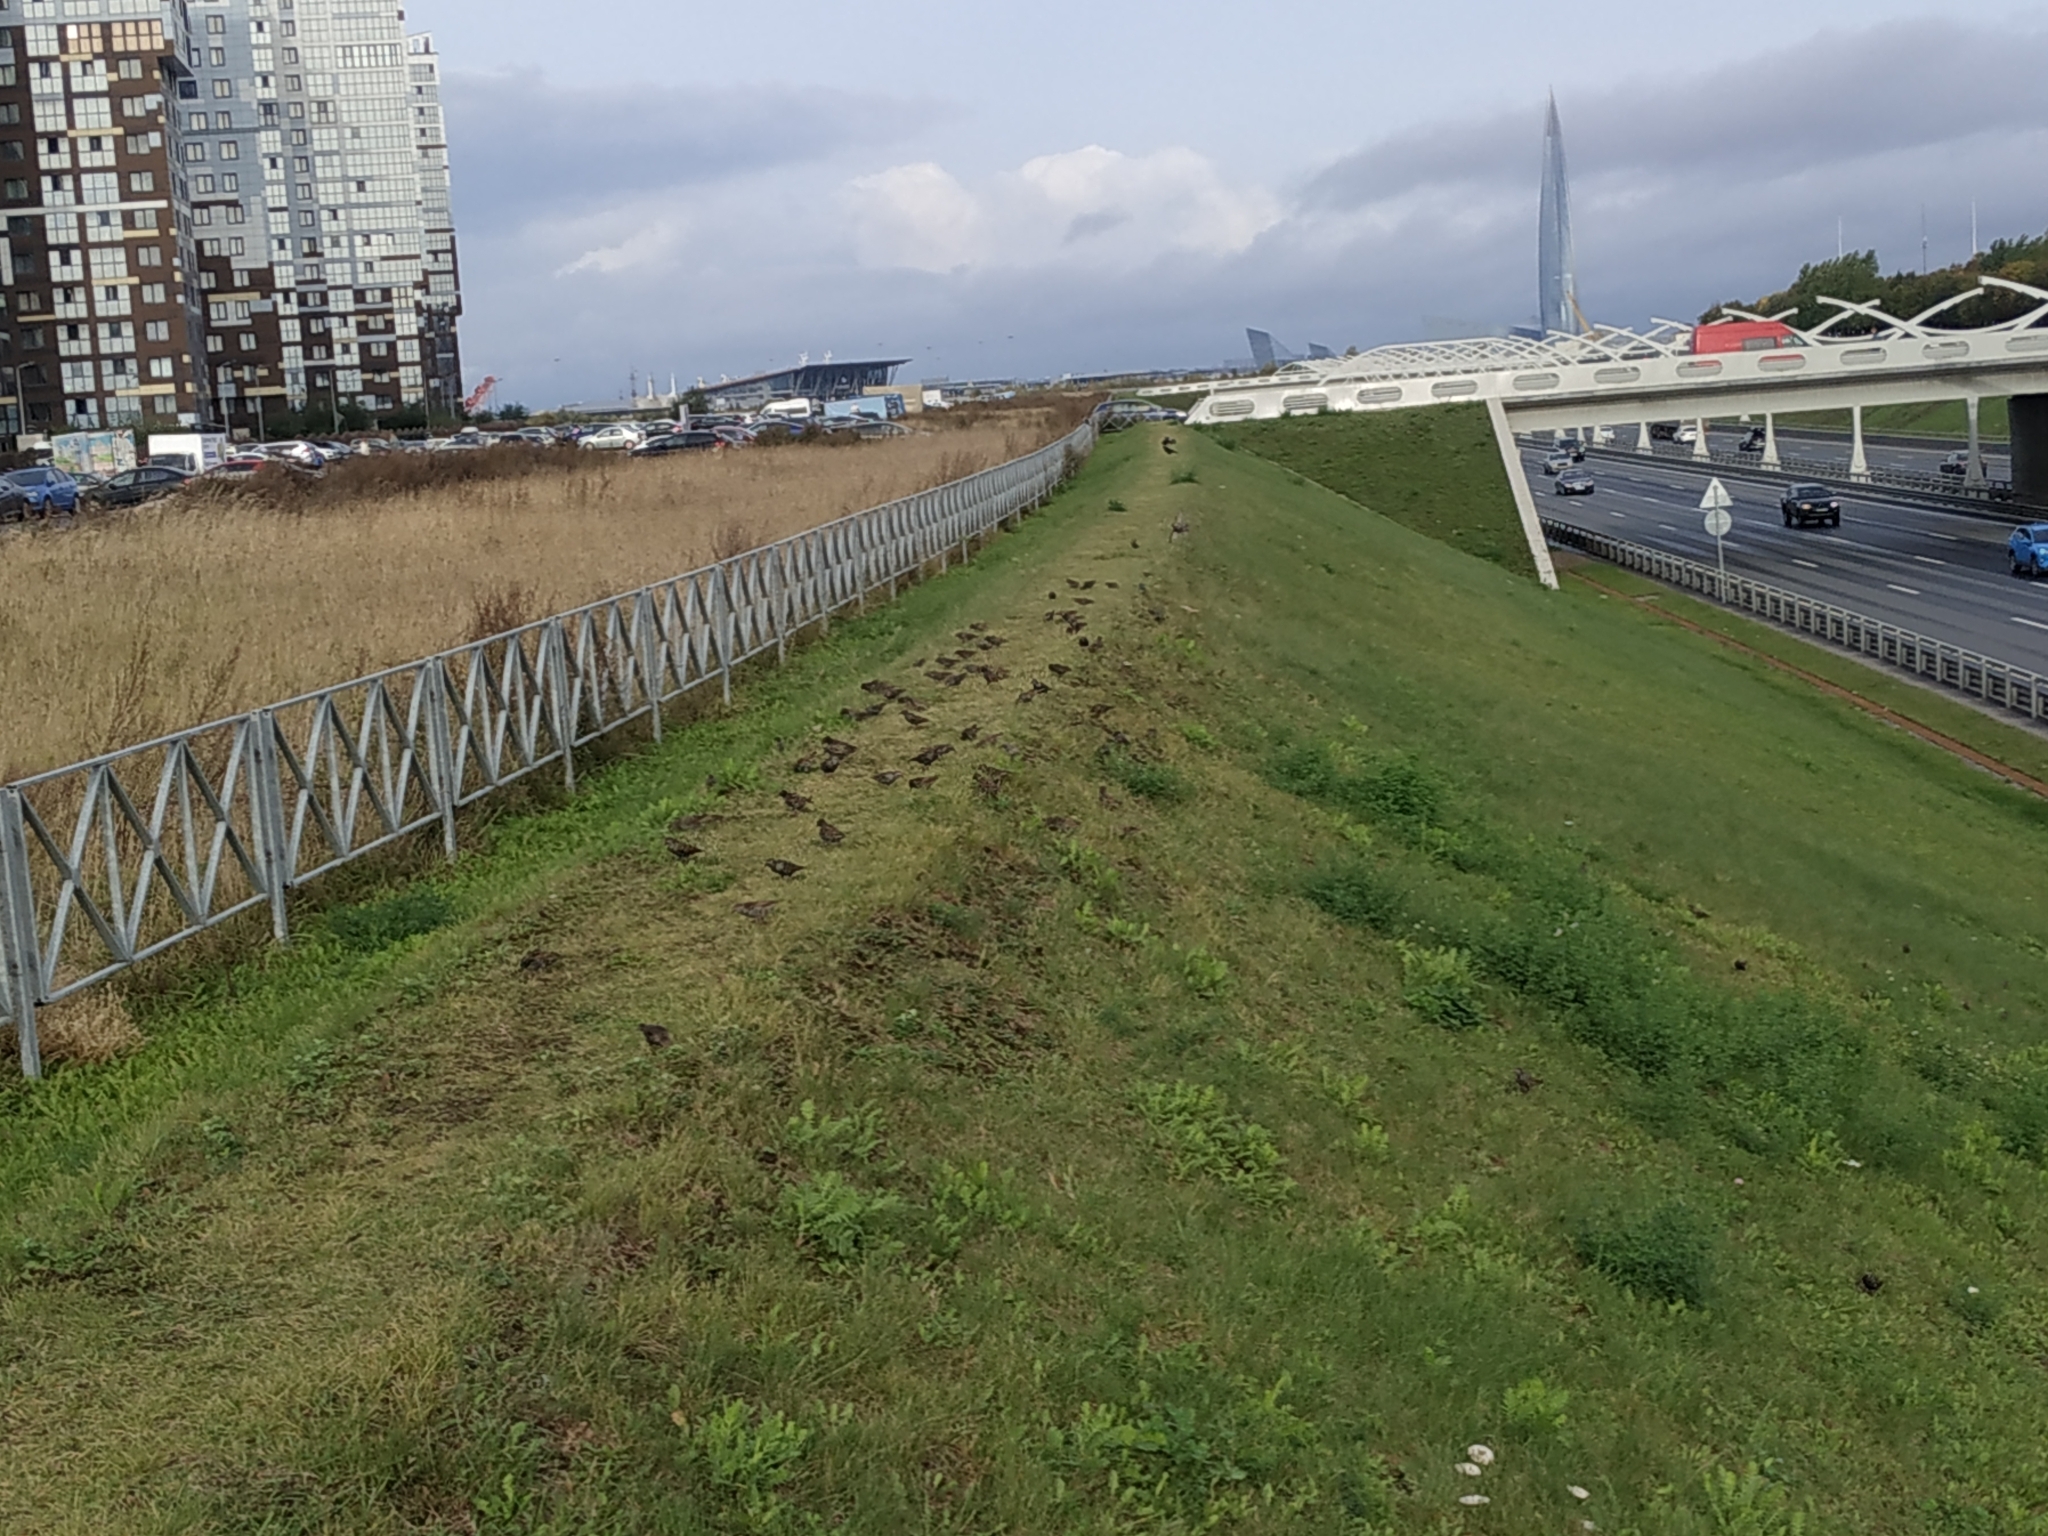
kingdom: Animalia
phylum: Chordata
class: Aves
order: Passeriformes
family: Sturnidae
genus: Sturnus
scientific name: Sturnus vulgaris
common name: Common starling
